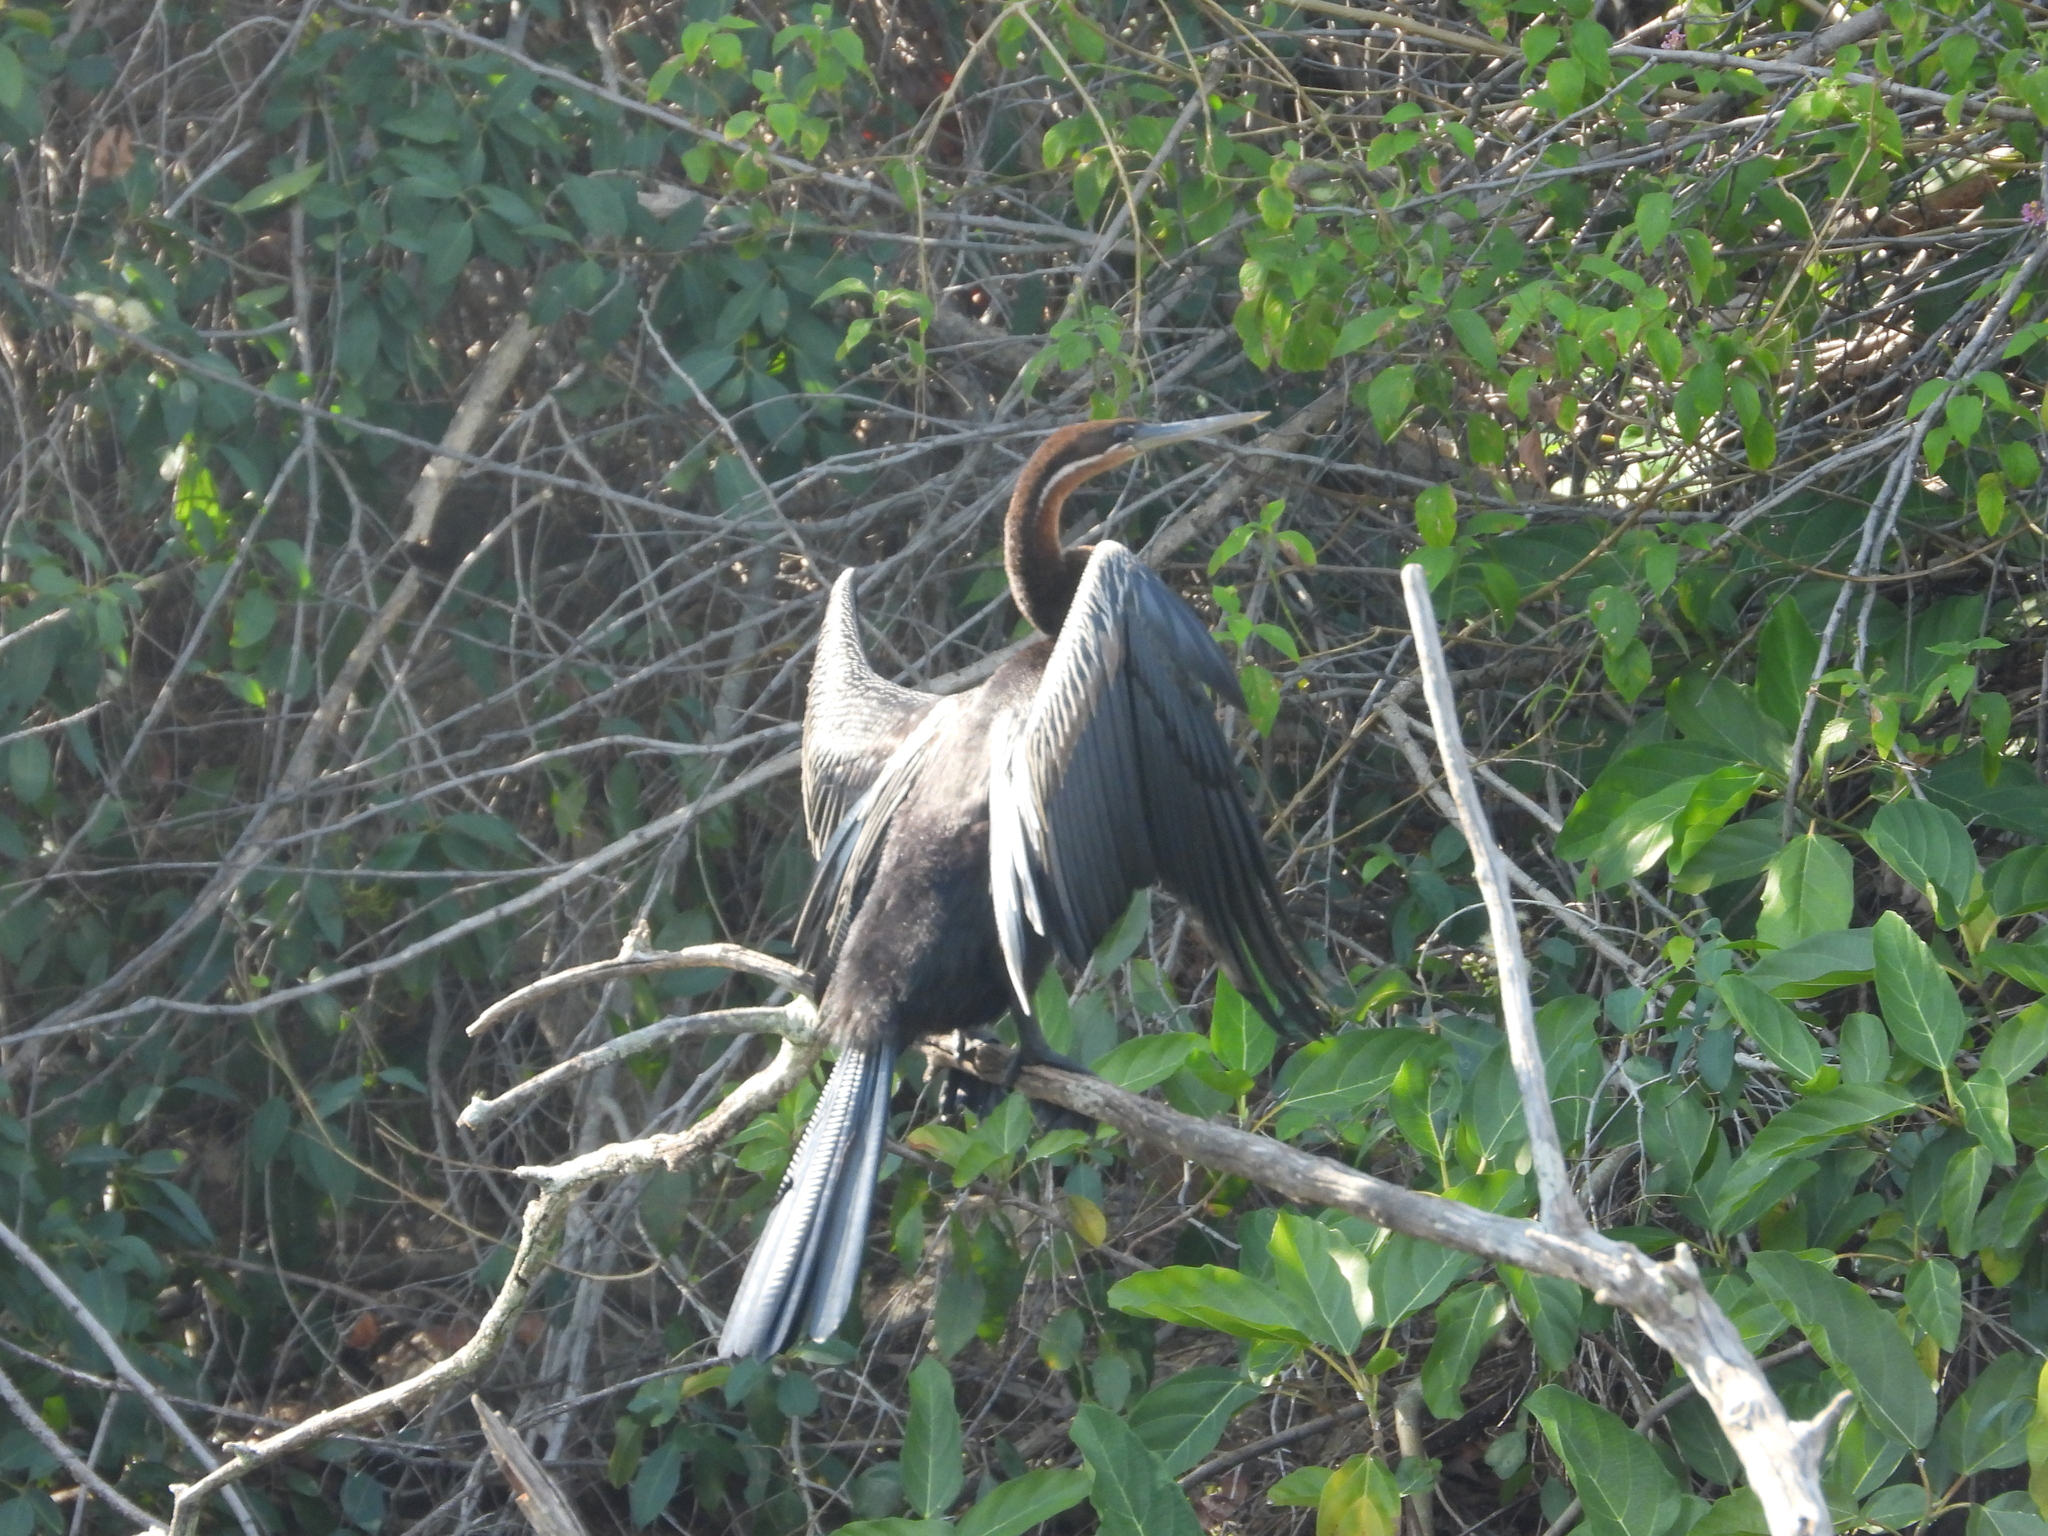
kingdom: Animalia
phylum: Chordata
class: Aves
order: Suliformes
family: Anhingidae
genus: Anhinga
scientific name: Anhinga rufa
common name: African darter
